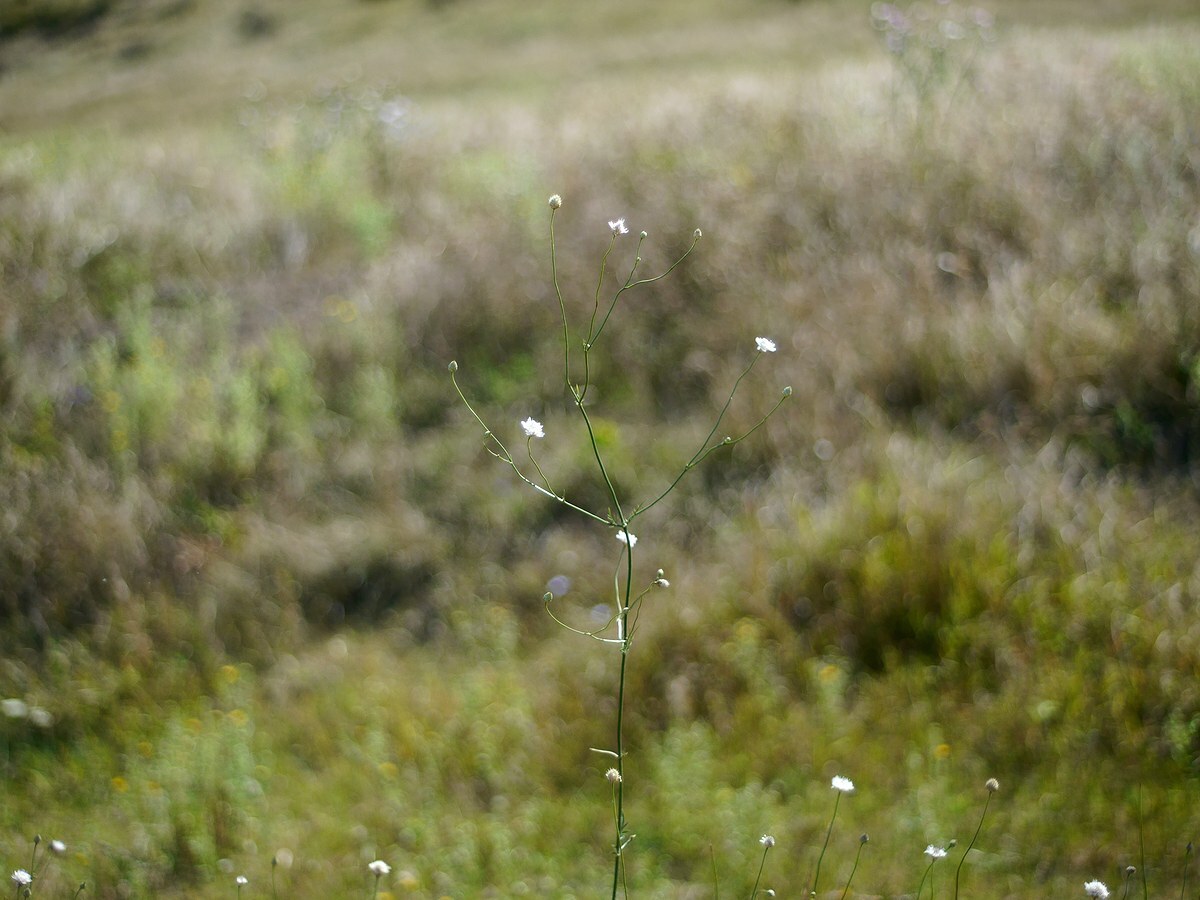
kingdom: Plantae
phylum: Tracheophyta
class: Magnoliopsida
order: Dipsacales
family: Caprifoliaceae
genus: Cephalaria
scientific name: Cephalaria transsylvanica
